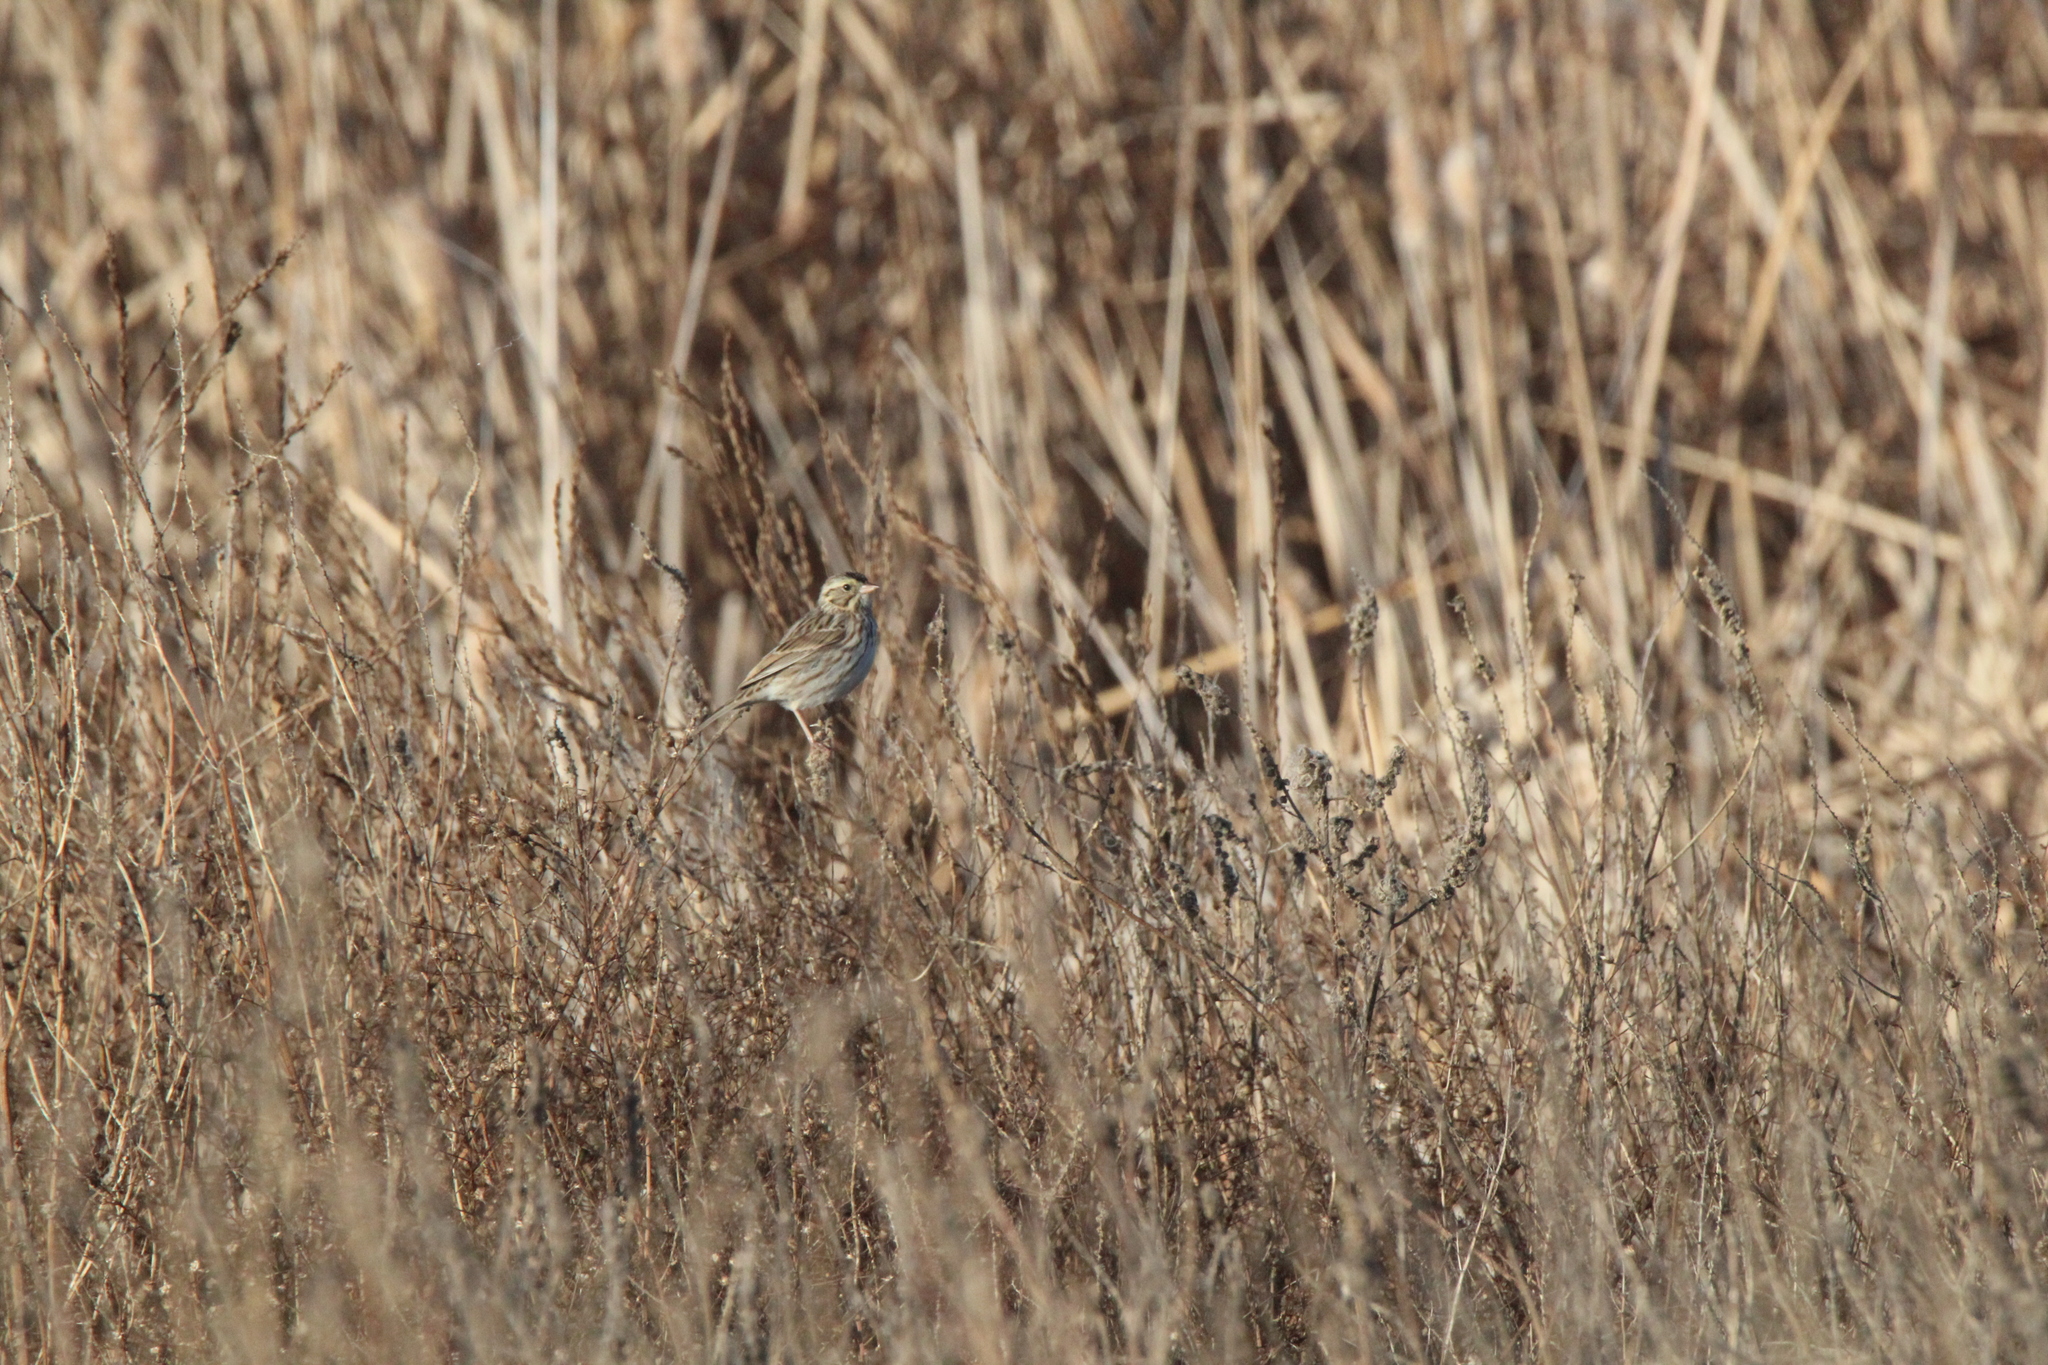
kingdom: Animalia
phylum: Chordata
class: Aves
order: Passeriformes
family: Passerellidae
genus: Passerculus
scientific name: Passerculus sandwichensis
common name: Savannah sparrow
